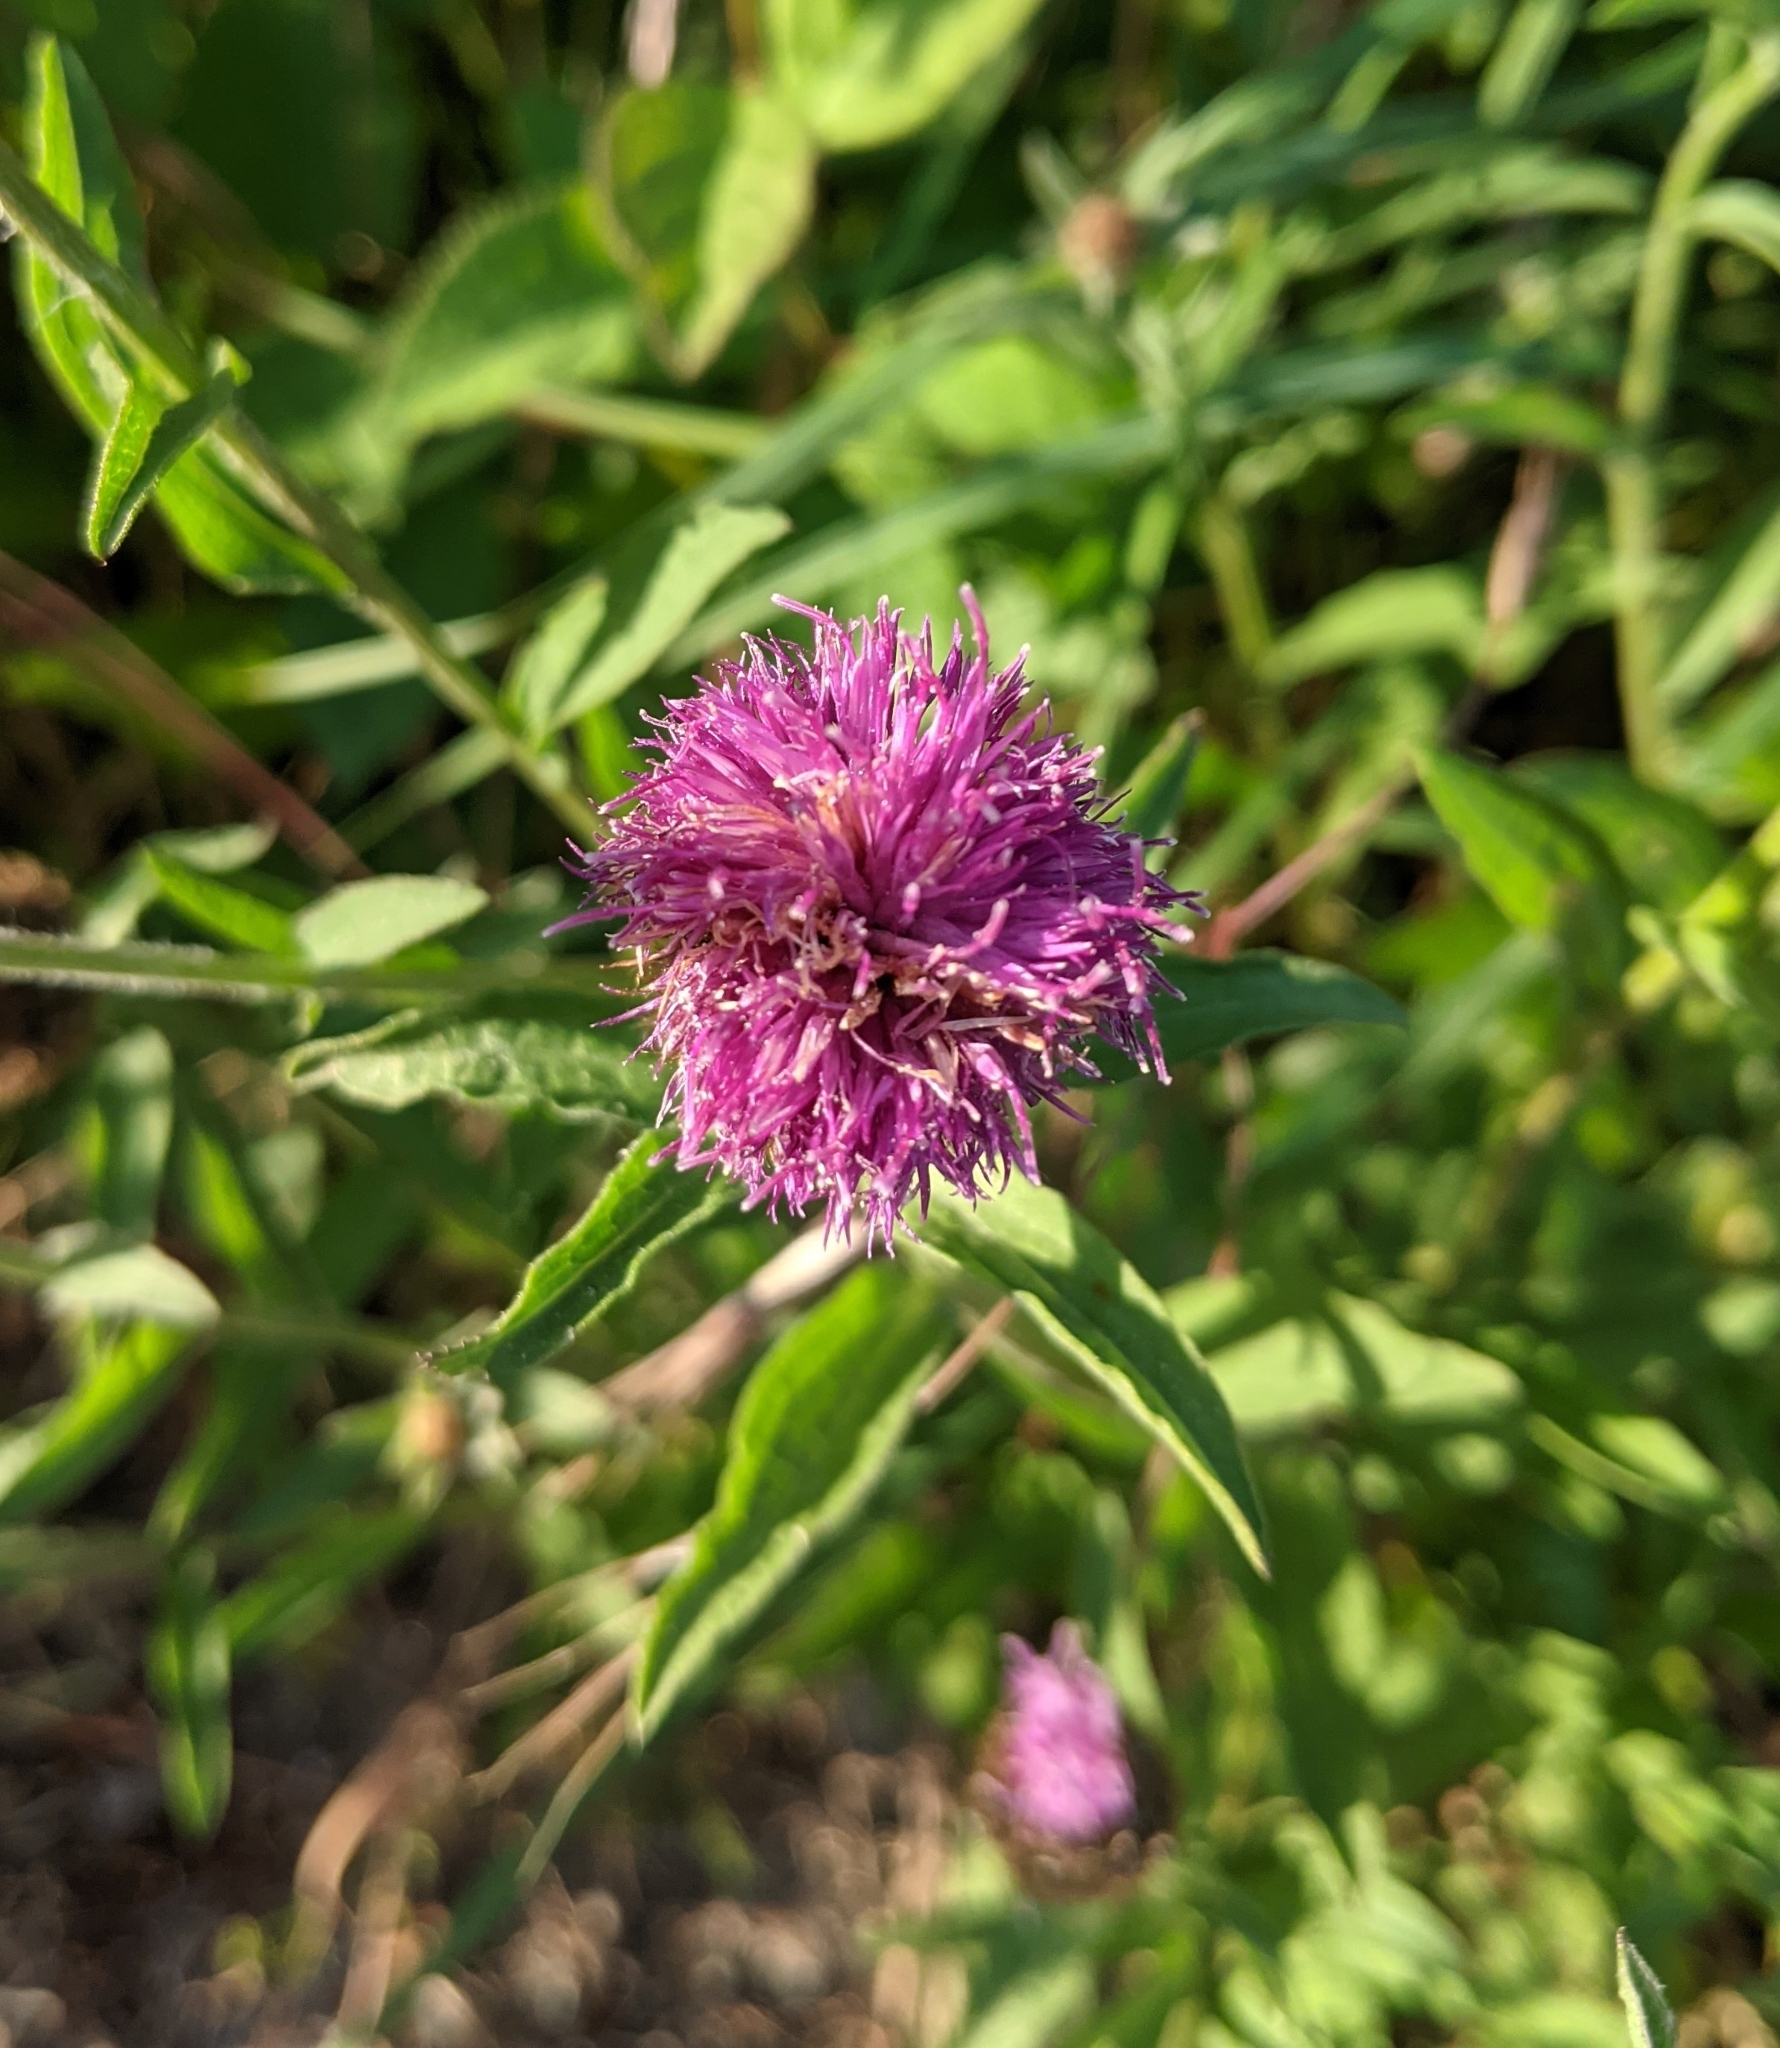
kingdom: Plantae
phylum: Tracheophyta
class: Magnoliopsida
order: Asterales
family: Asteraceae
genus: Centaurea
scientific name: Centaurea nigra
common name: Lesser knapweed
